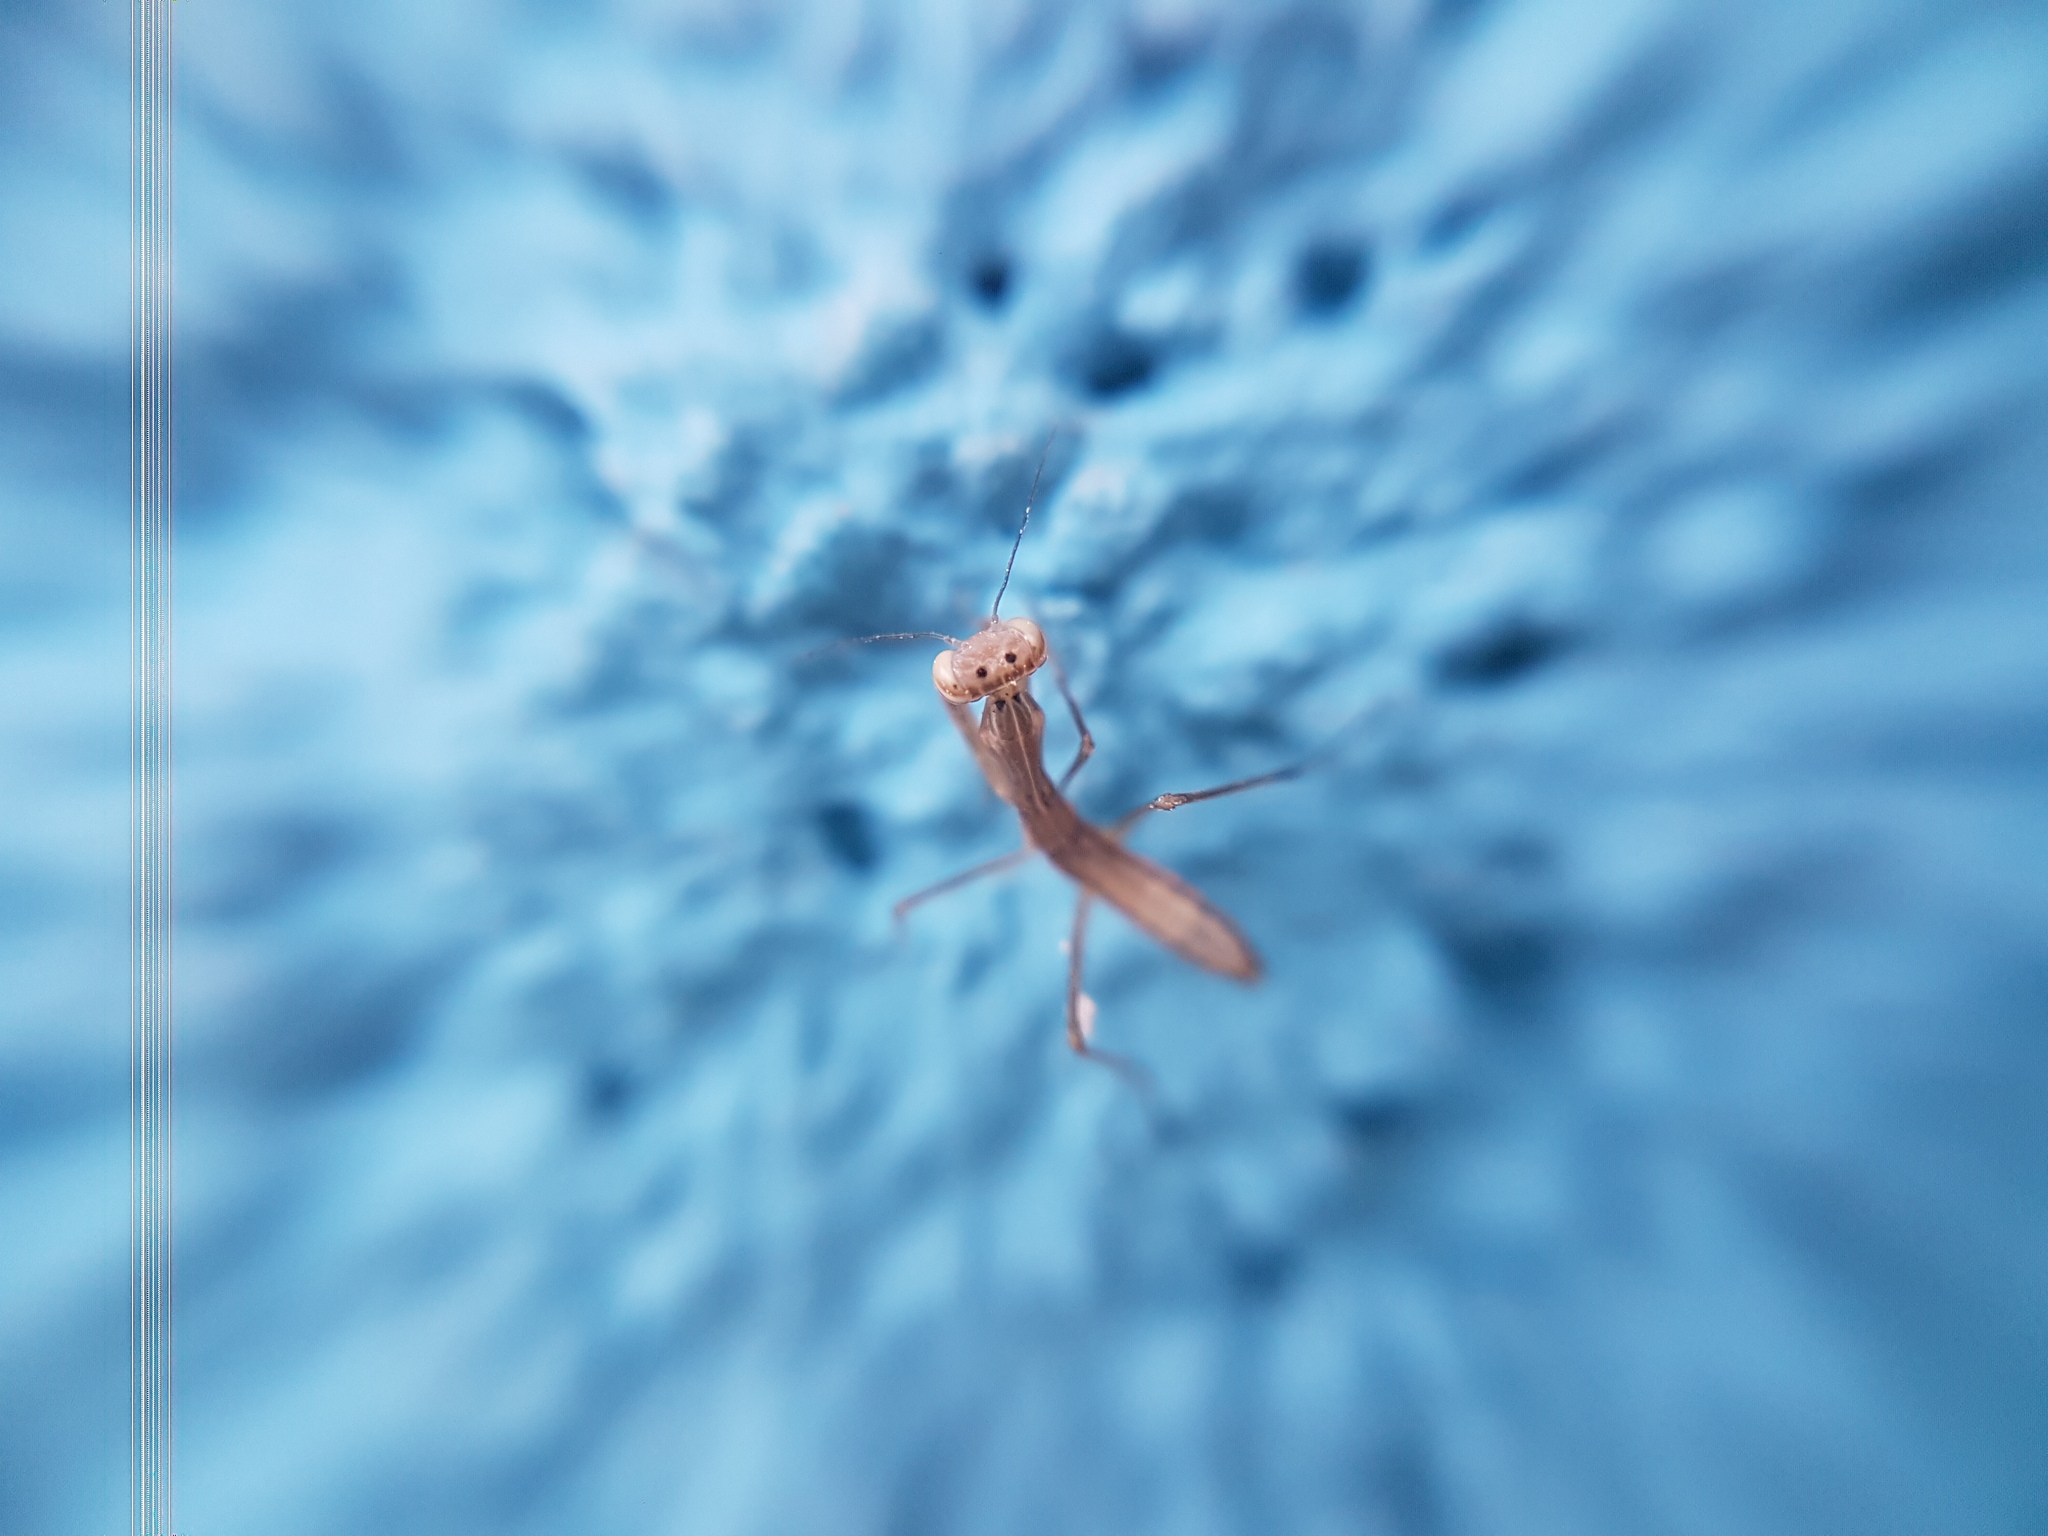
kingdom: Animalia
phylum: Arthropoda
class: Insecta
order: Mantodea
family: Mantidae
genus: Mantis
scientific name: Mantis religiosa
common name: Praying mantis
